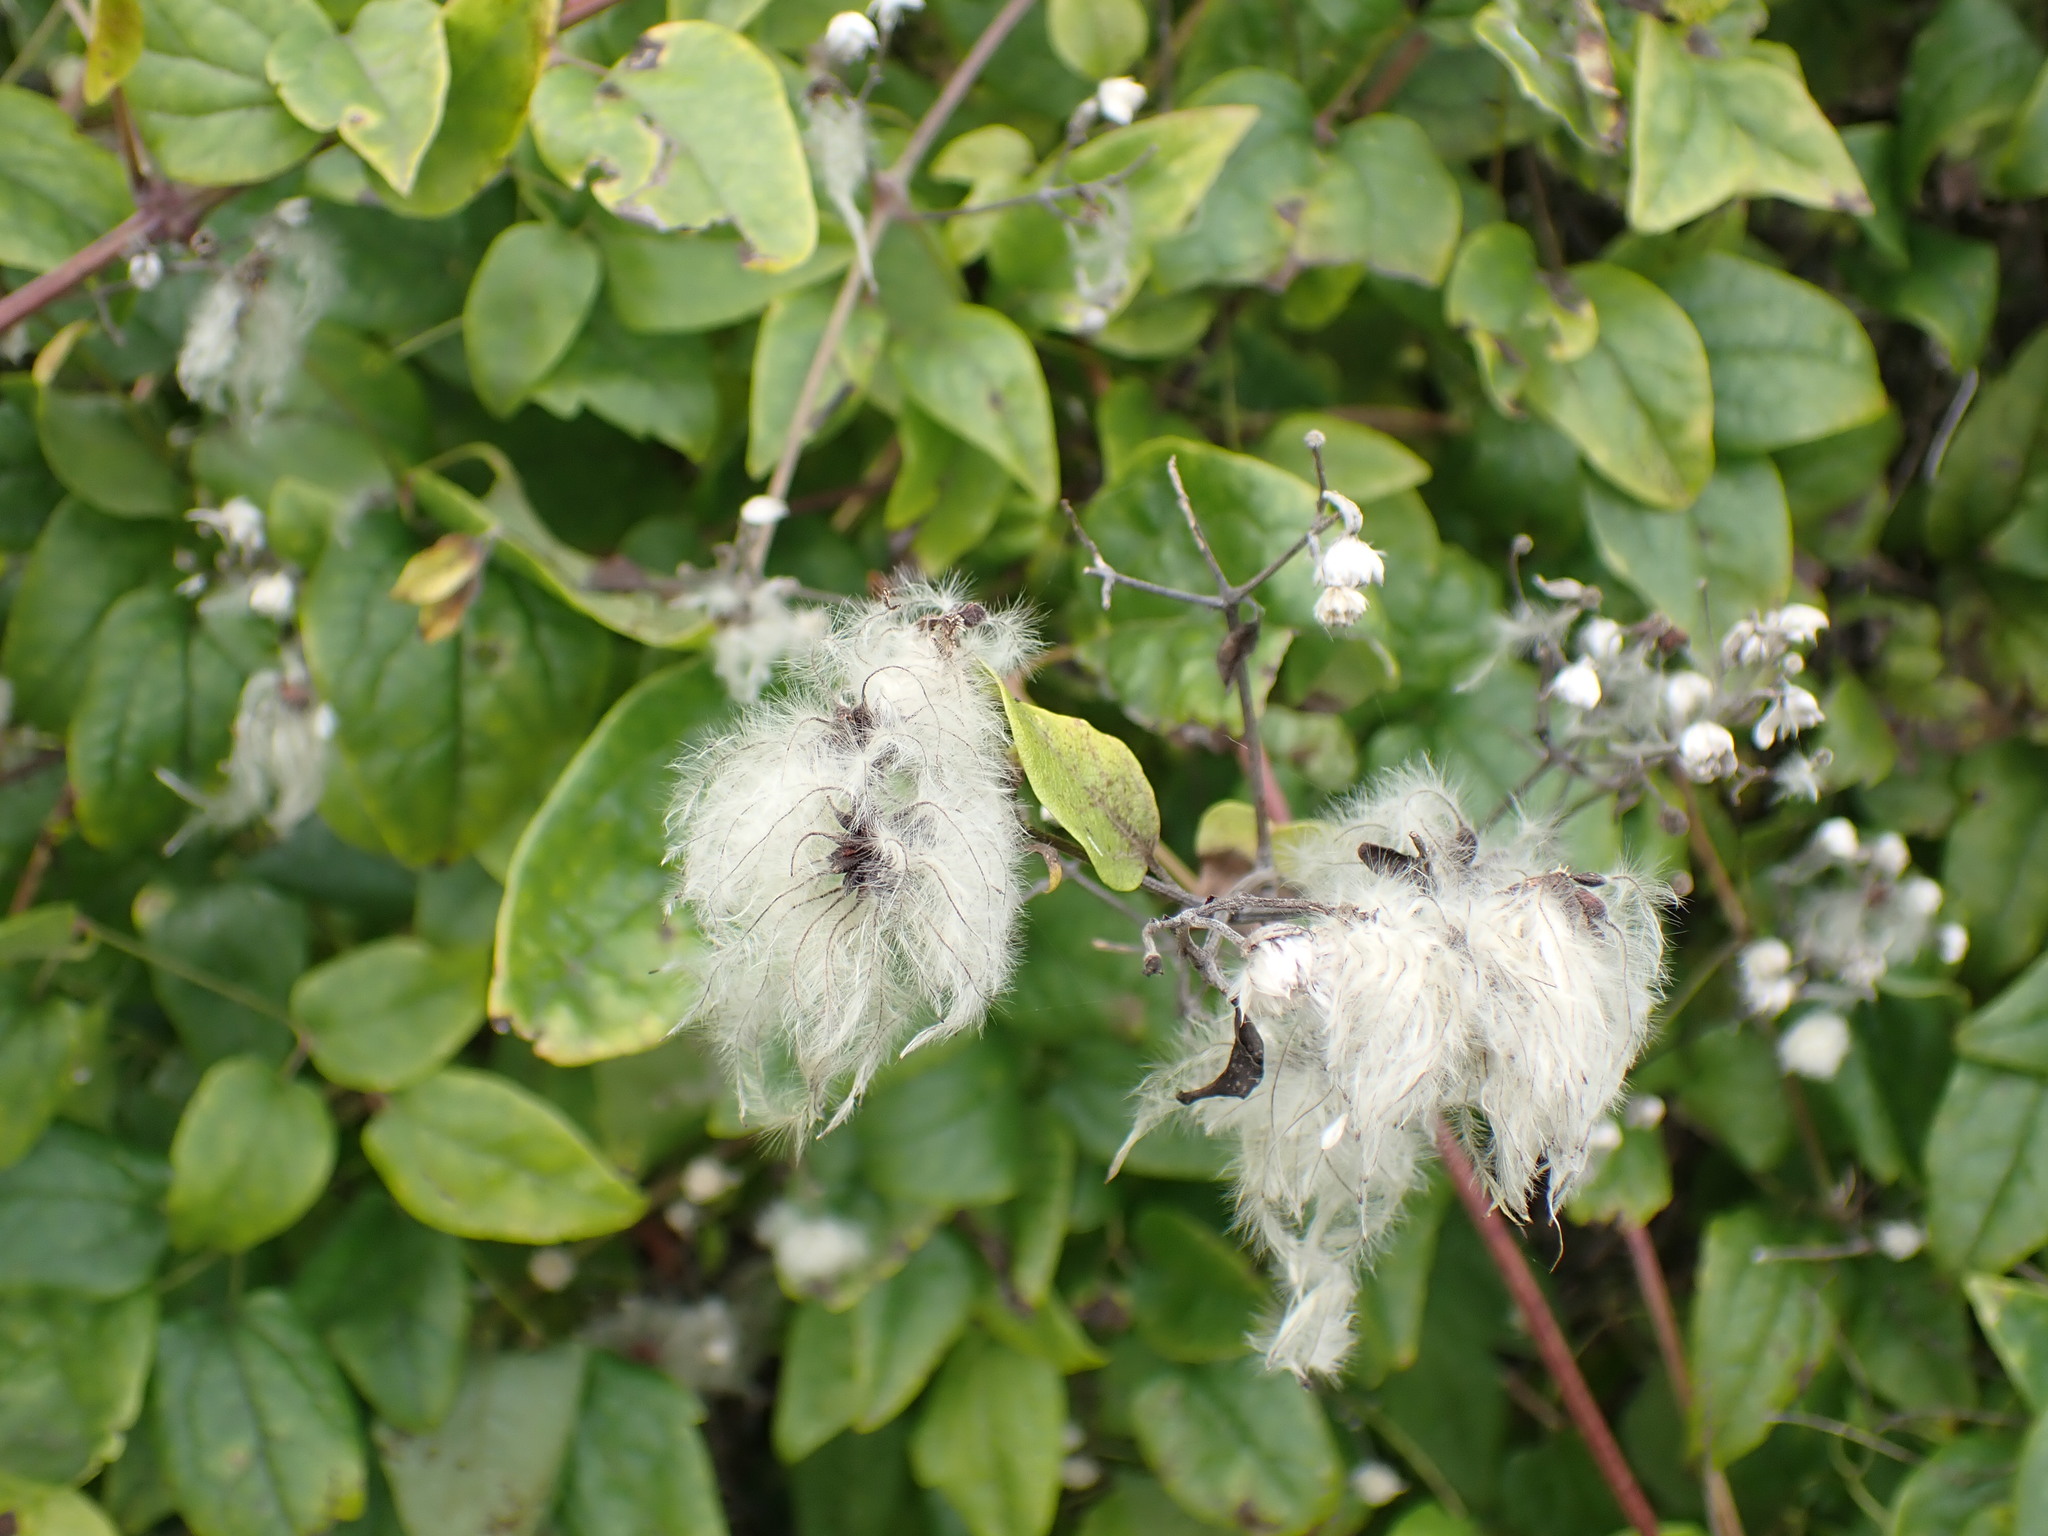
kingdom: Plantae
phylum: Tracheophyta
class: Magnoliopsida
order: Ranunculales
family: Ranunculaceae
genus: Clematis
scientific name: Clematis vitalba
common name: Evergreen clematis
